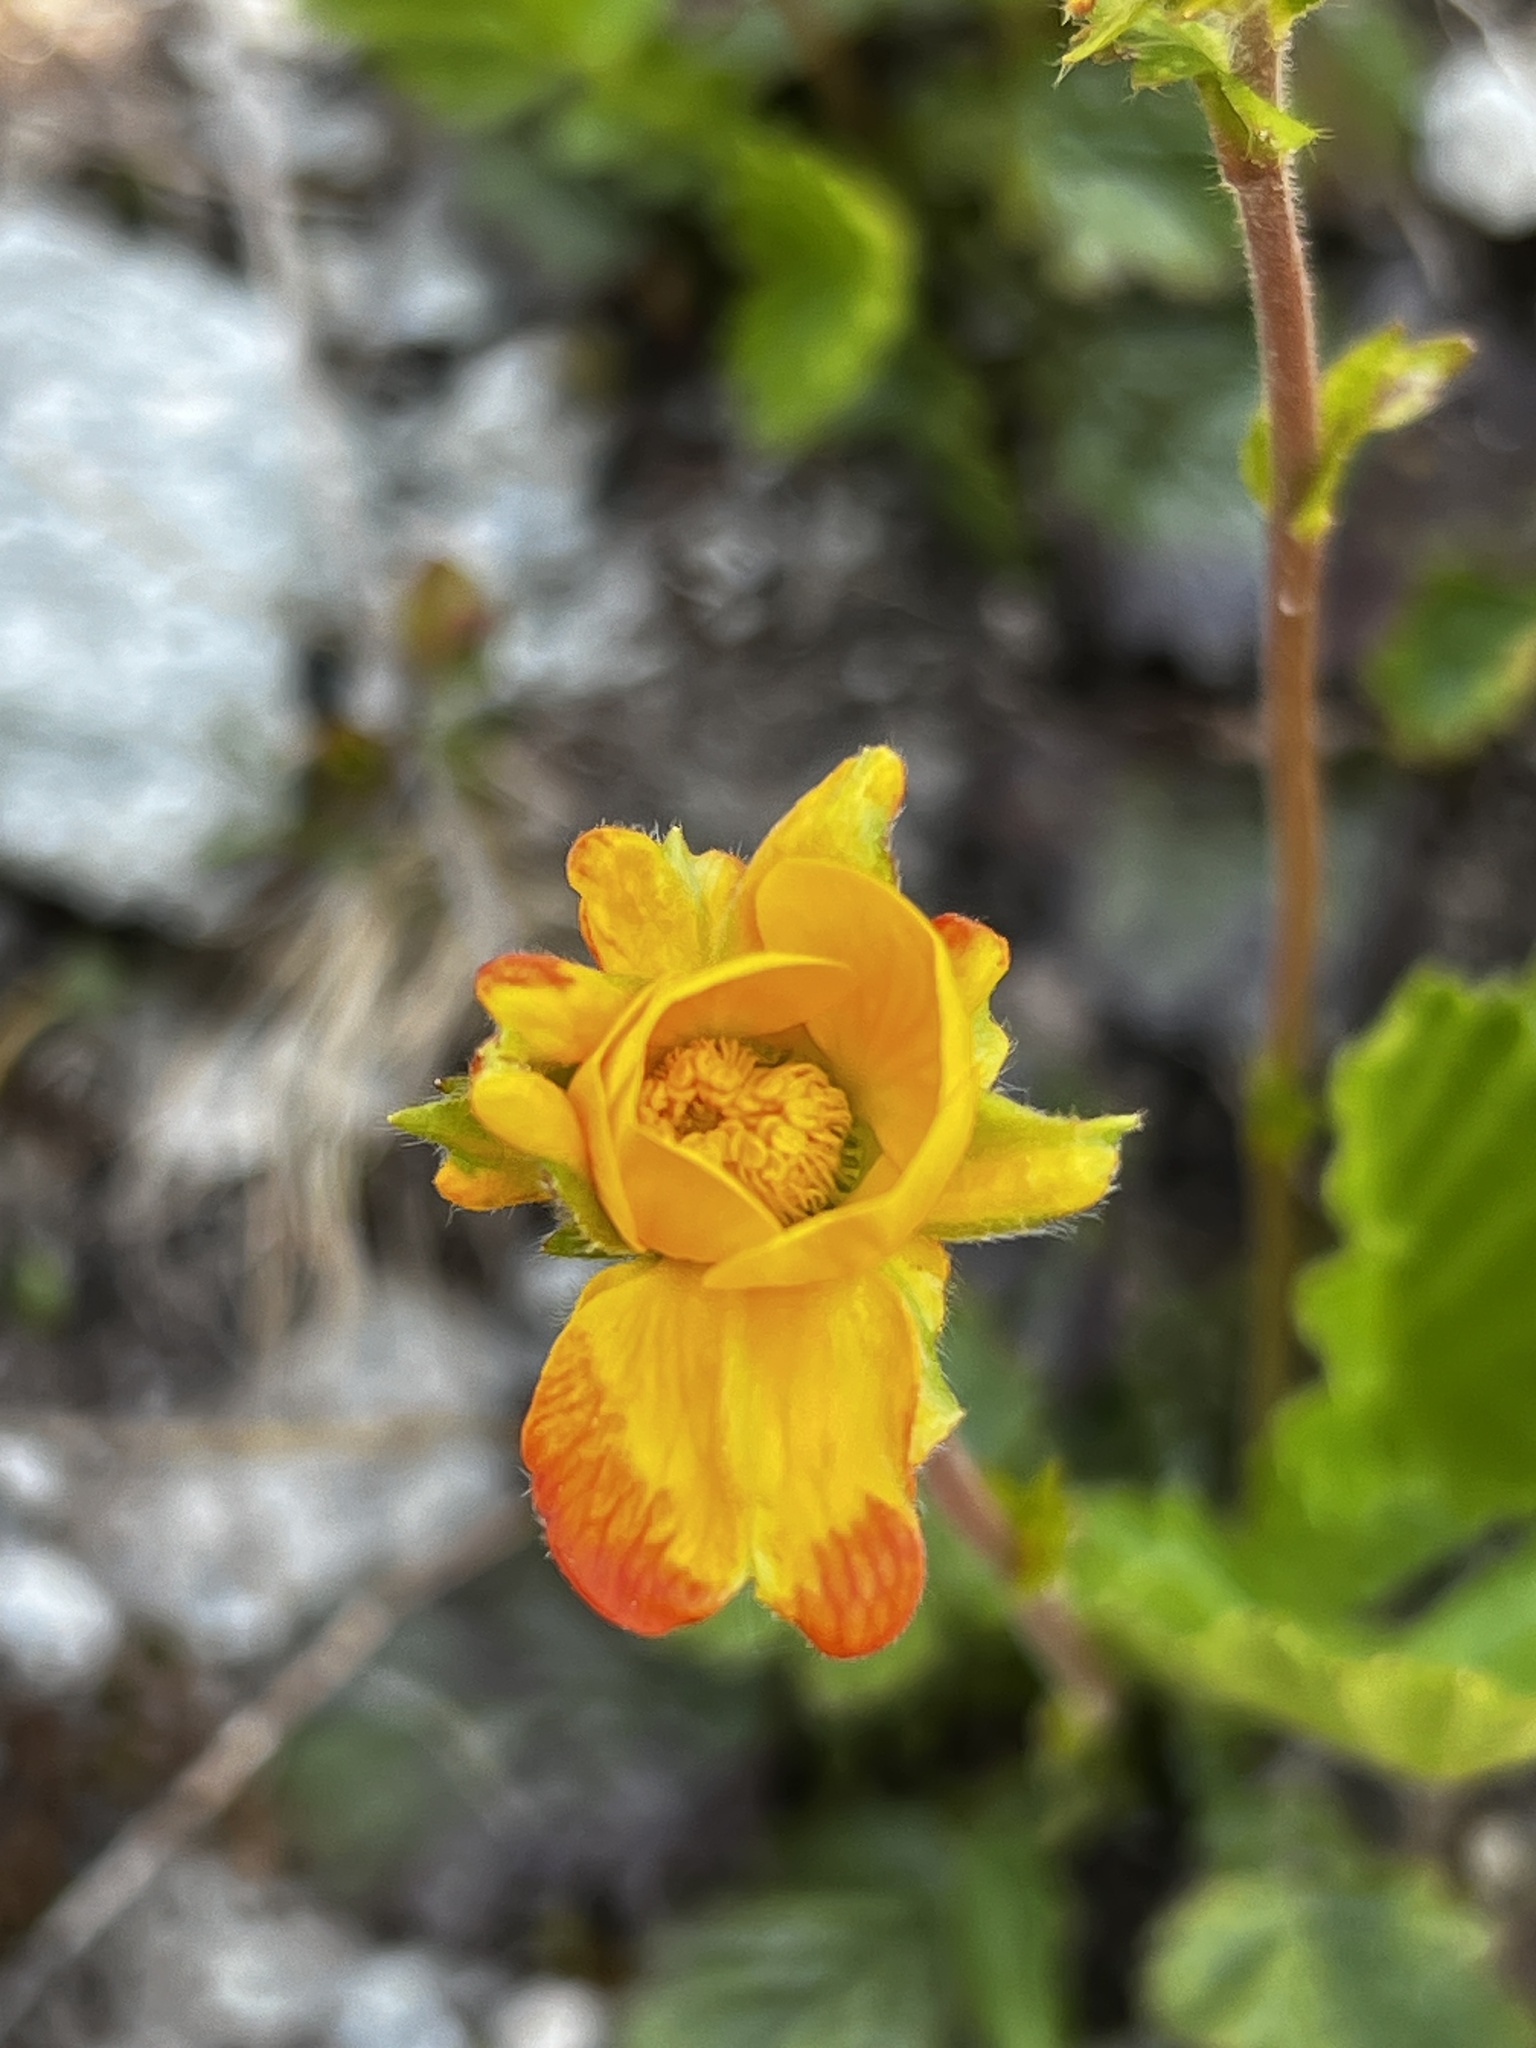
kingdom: Plantae
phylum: Tracheophyta
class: Magnoliopsida
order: Rosales
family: Rosaceae
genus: Geum
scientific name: Geum montanum
